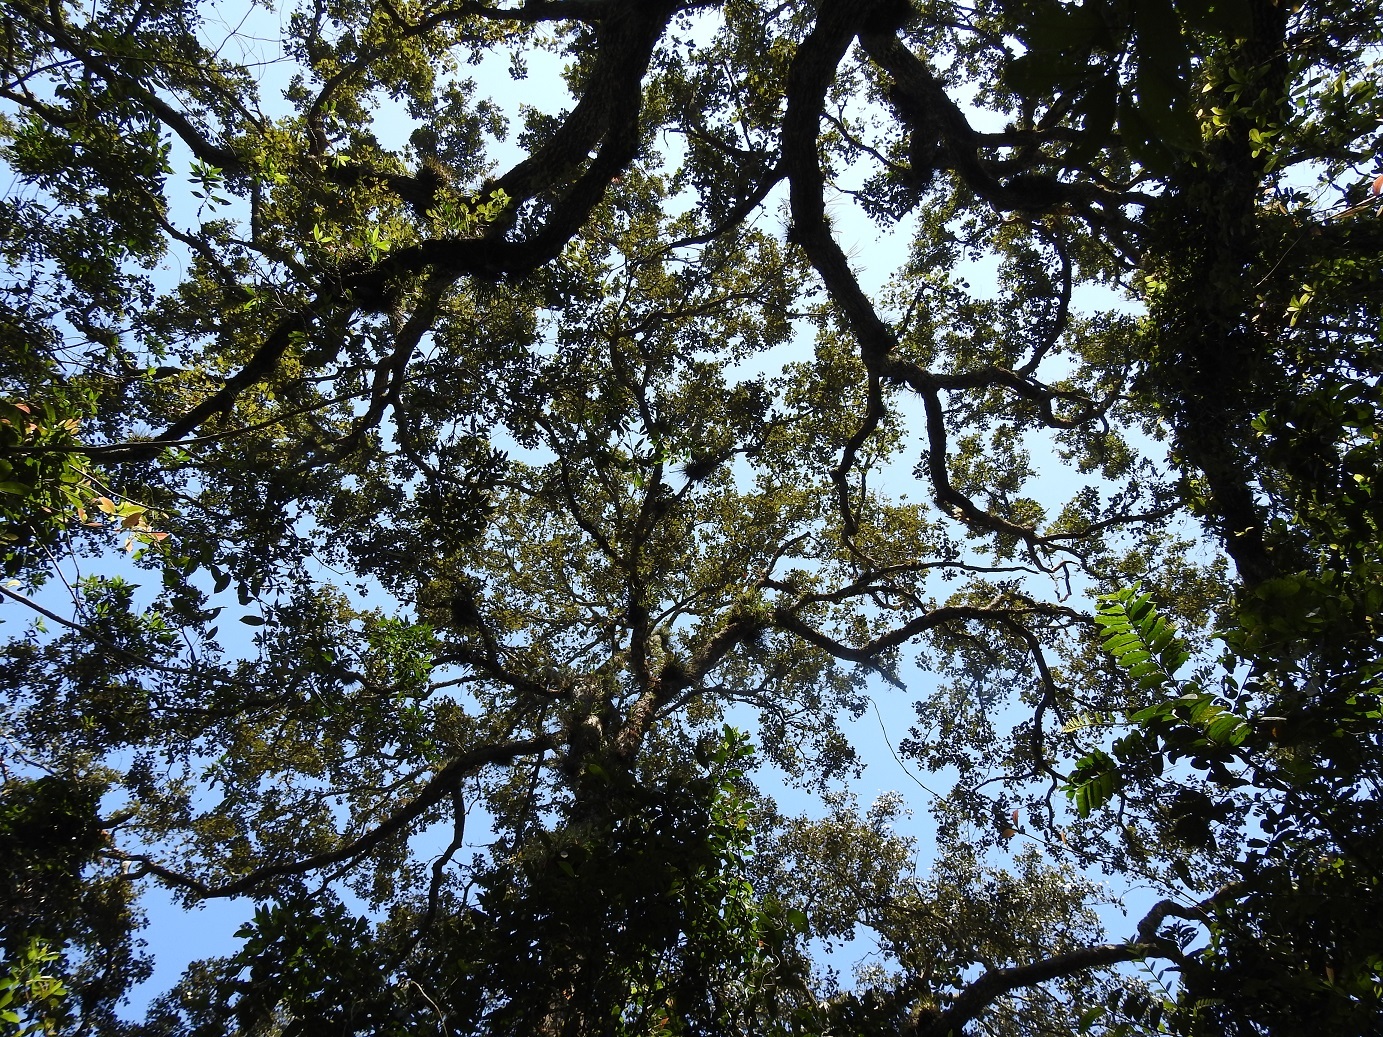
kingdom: Plantae
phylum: Tracheophyta
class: Magnoliopsida
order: Fagales
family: Fagaceae
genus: Quercus
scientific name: Quercus oleoides
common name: White oak
